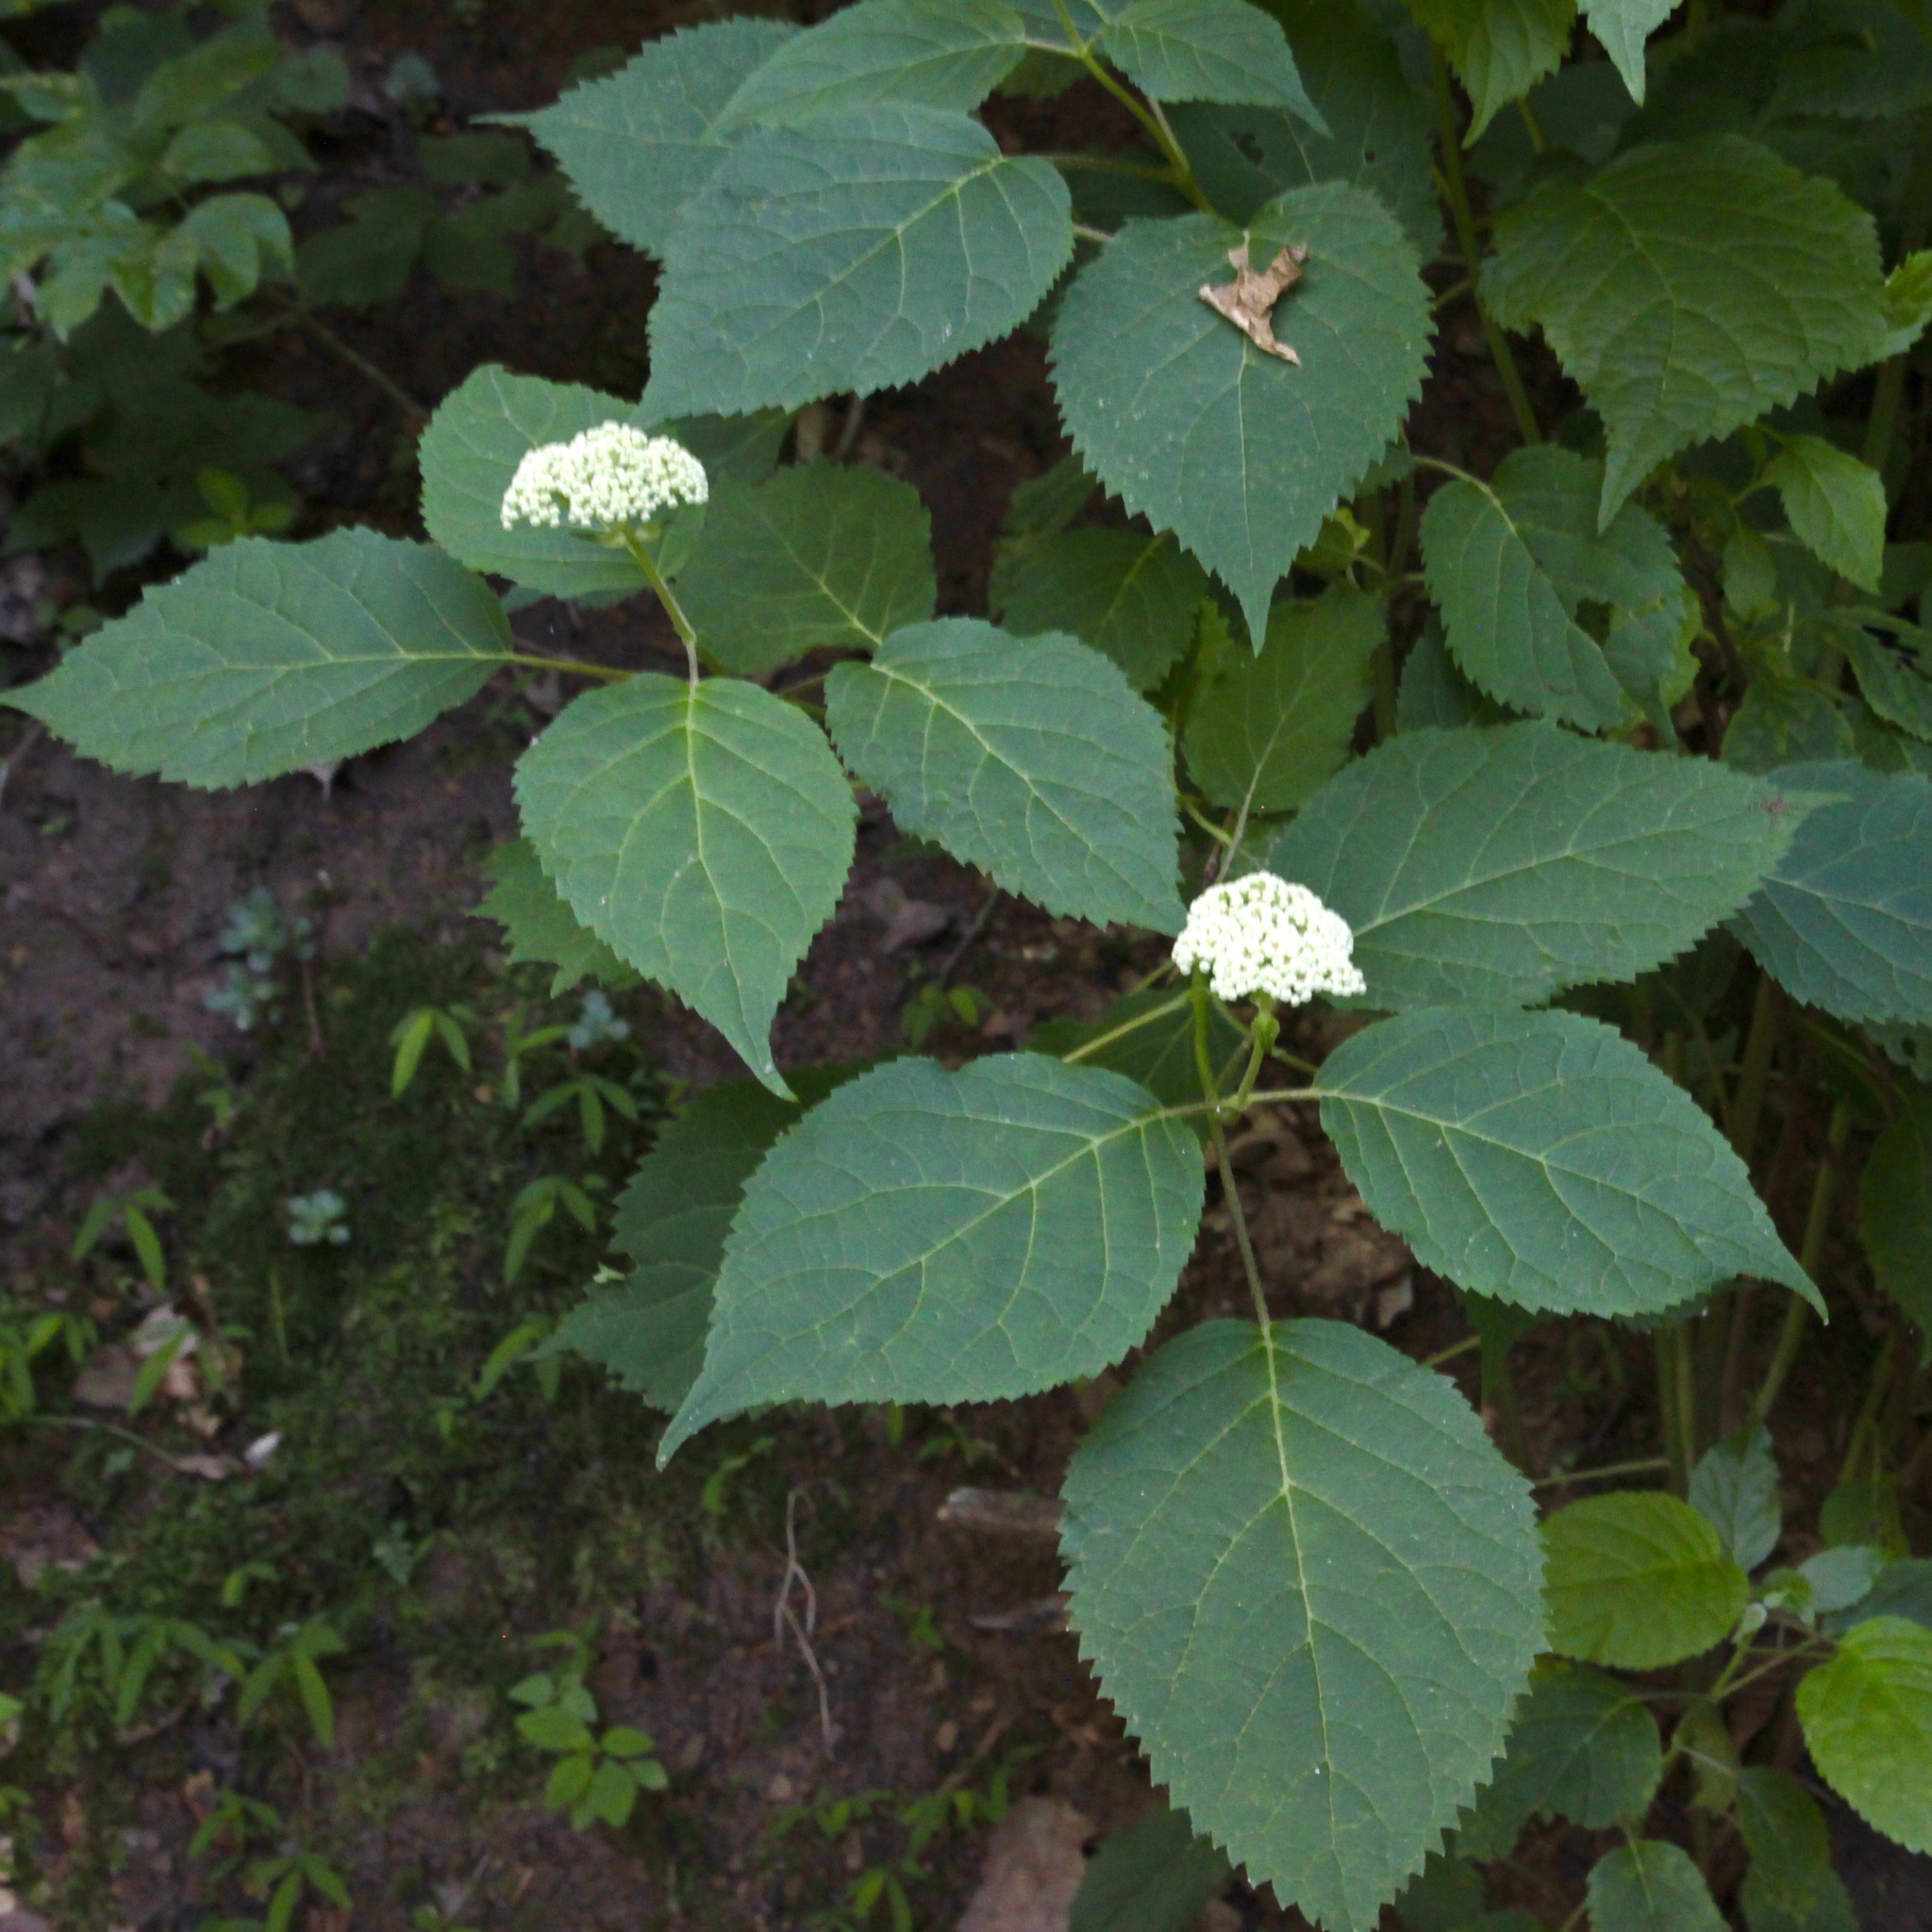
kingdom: Plantae
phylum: Tracheophyta
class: Magnoliopsida
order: Cornales
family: Hydrangeaceae
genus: Hydrangea
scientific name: Hydrangea arborescens
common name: Sevenbark
